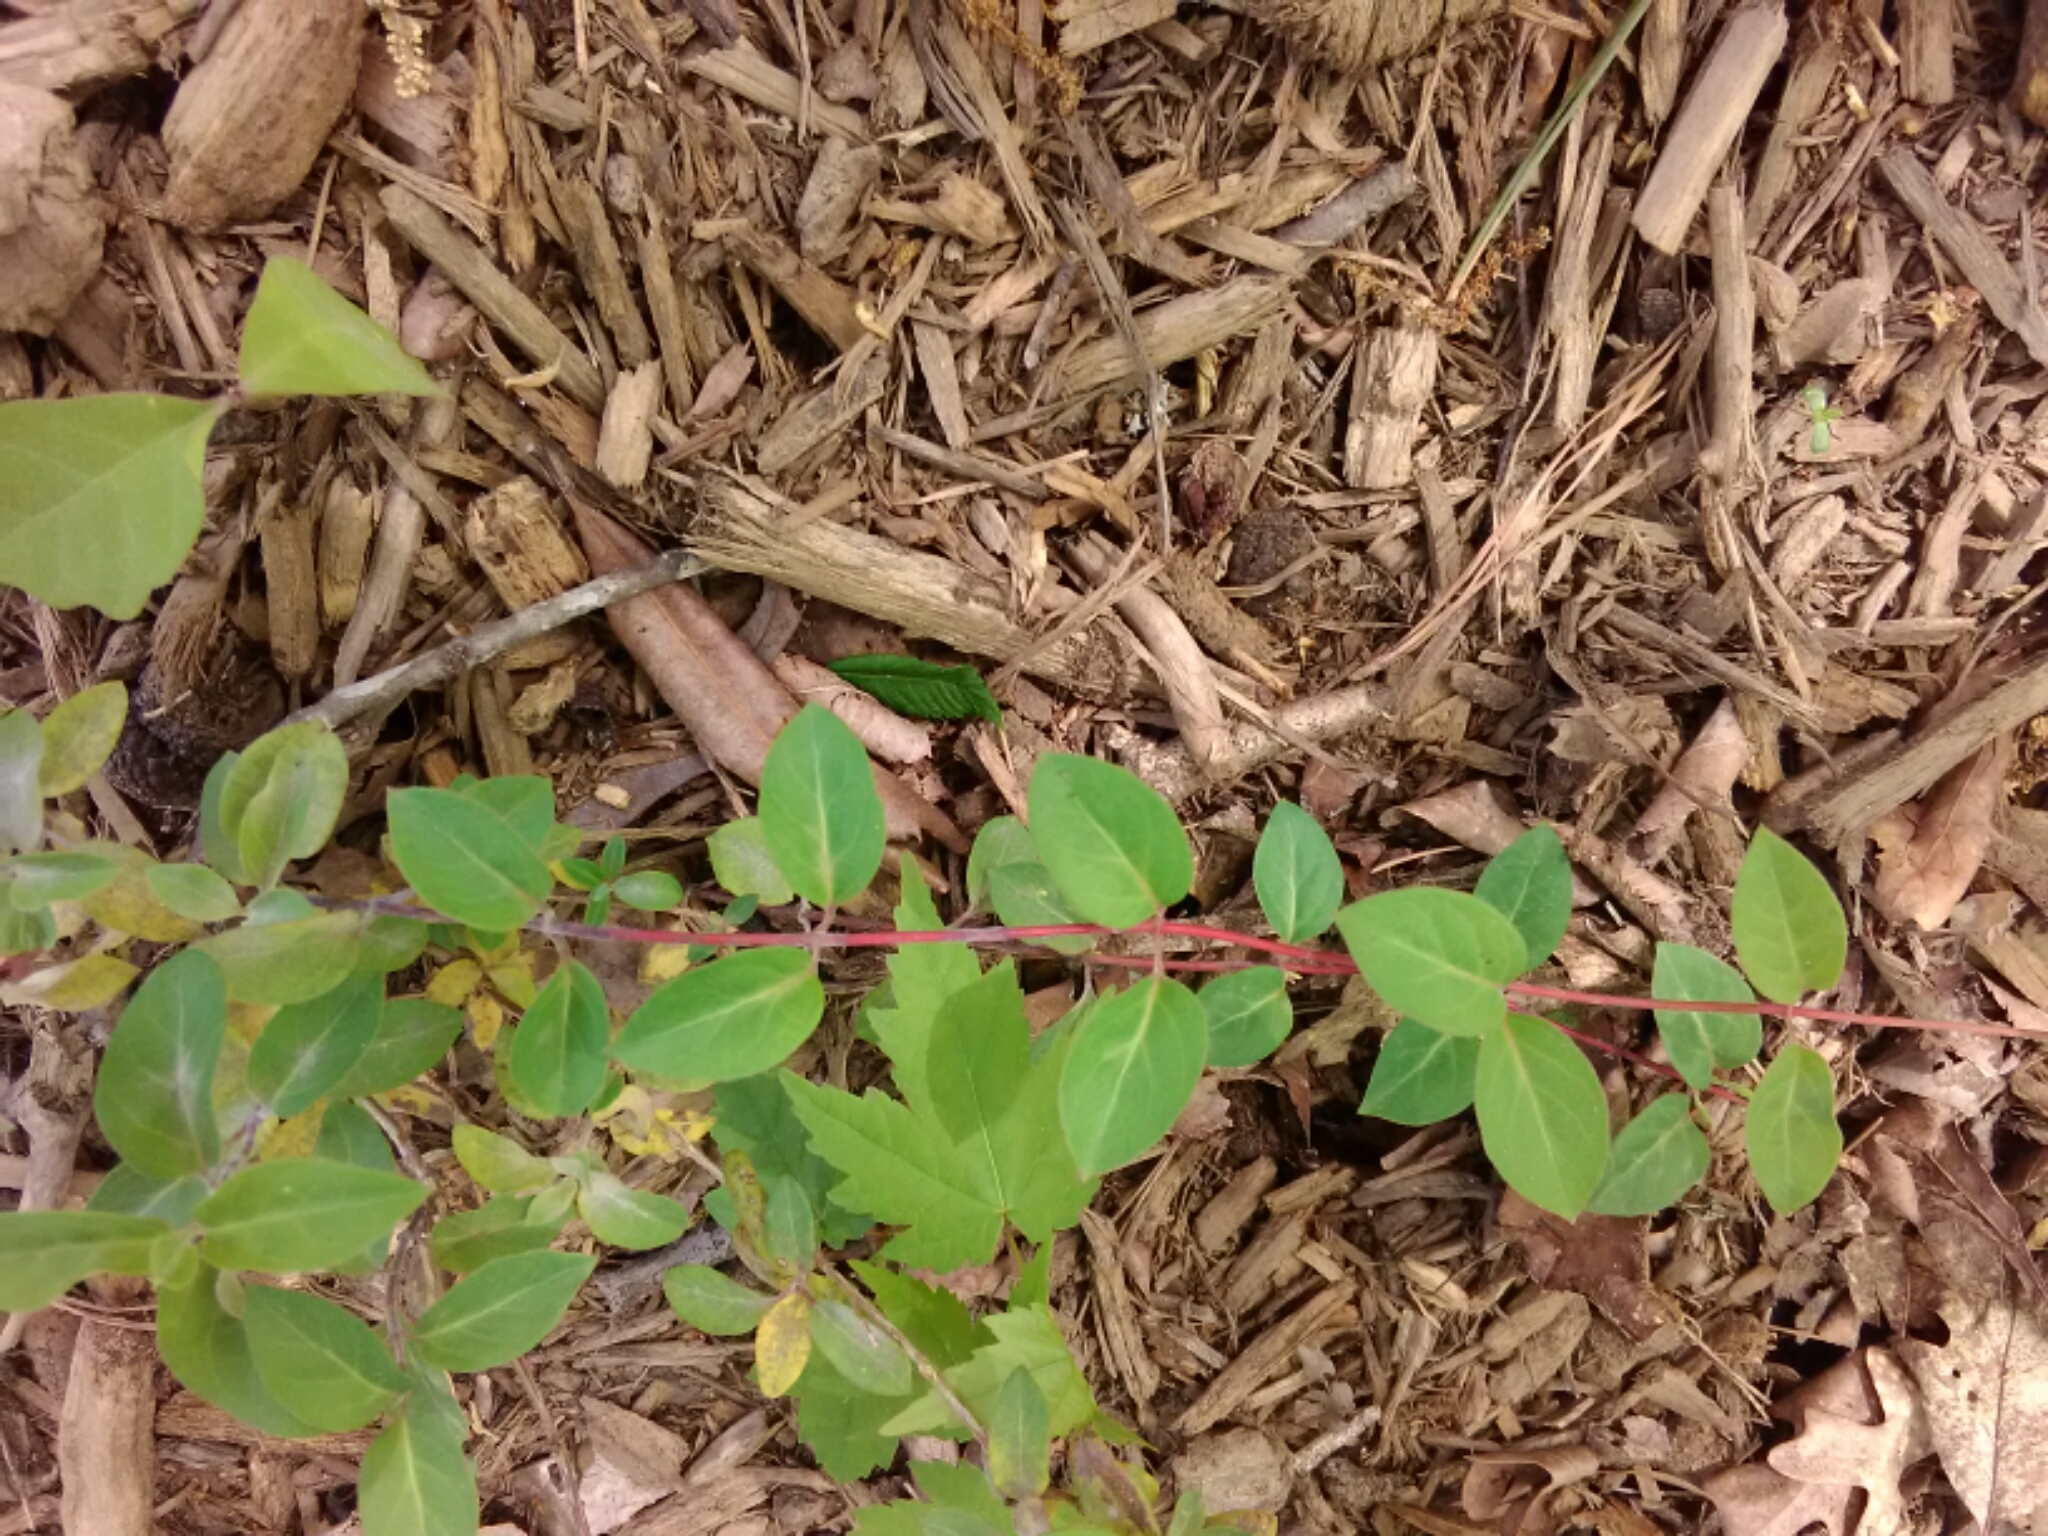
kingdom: Plantae
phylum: Tracheophyta
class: Magnoliopsida
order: Dipsacales
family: Caprifoliaceae
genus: Lonicera
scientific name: Lonicera japonica
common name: Japanese honeysuckle
